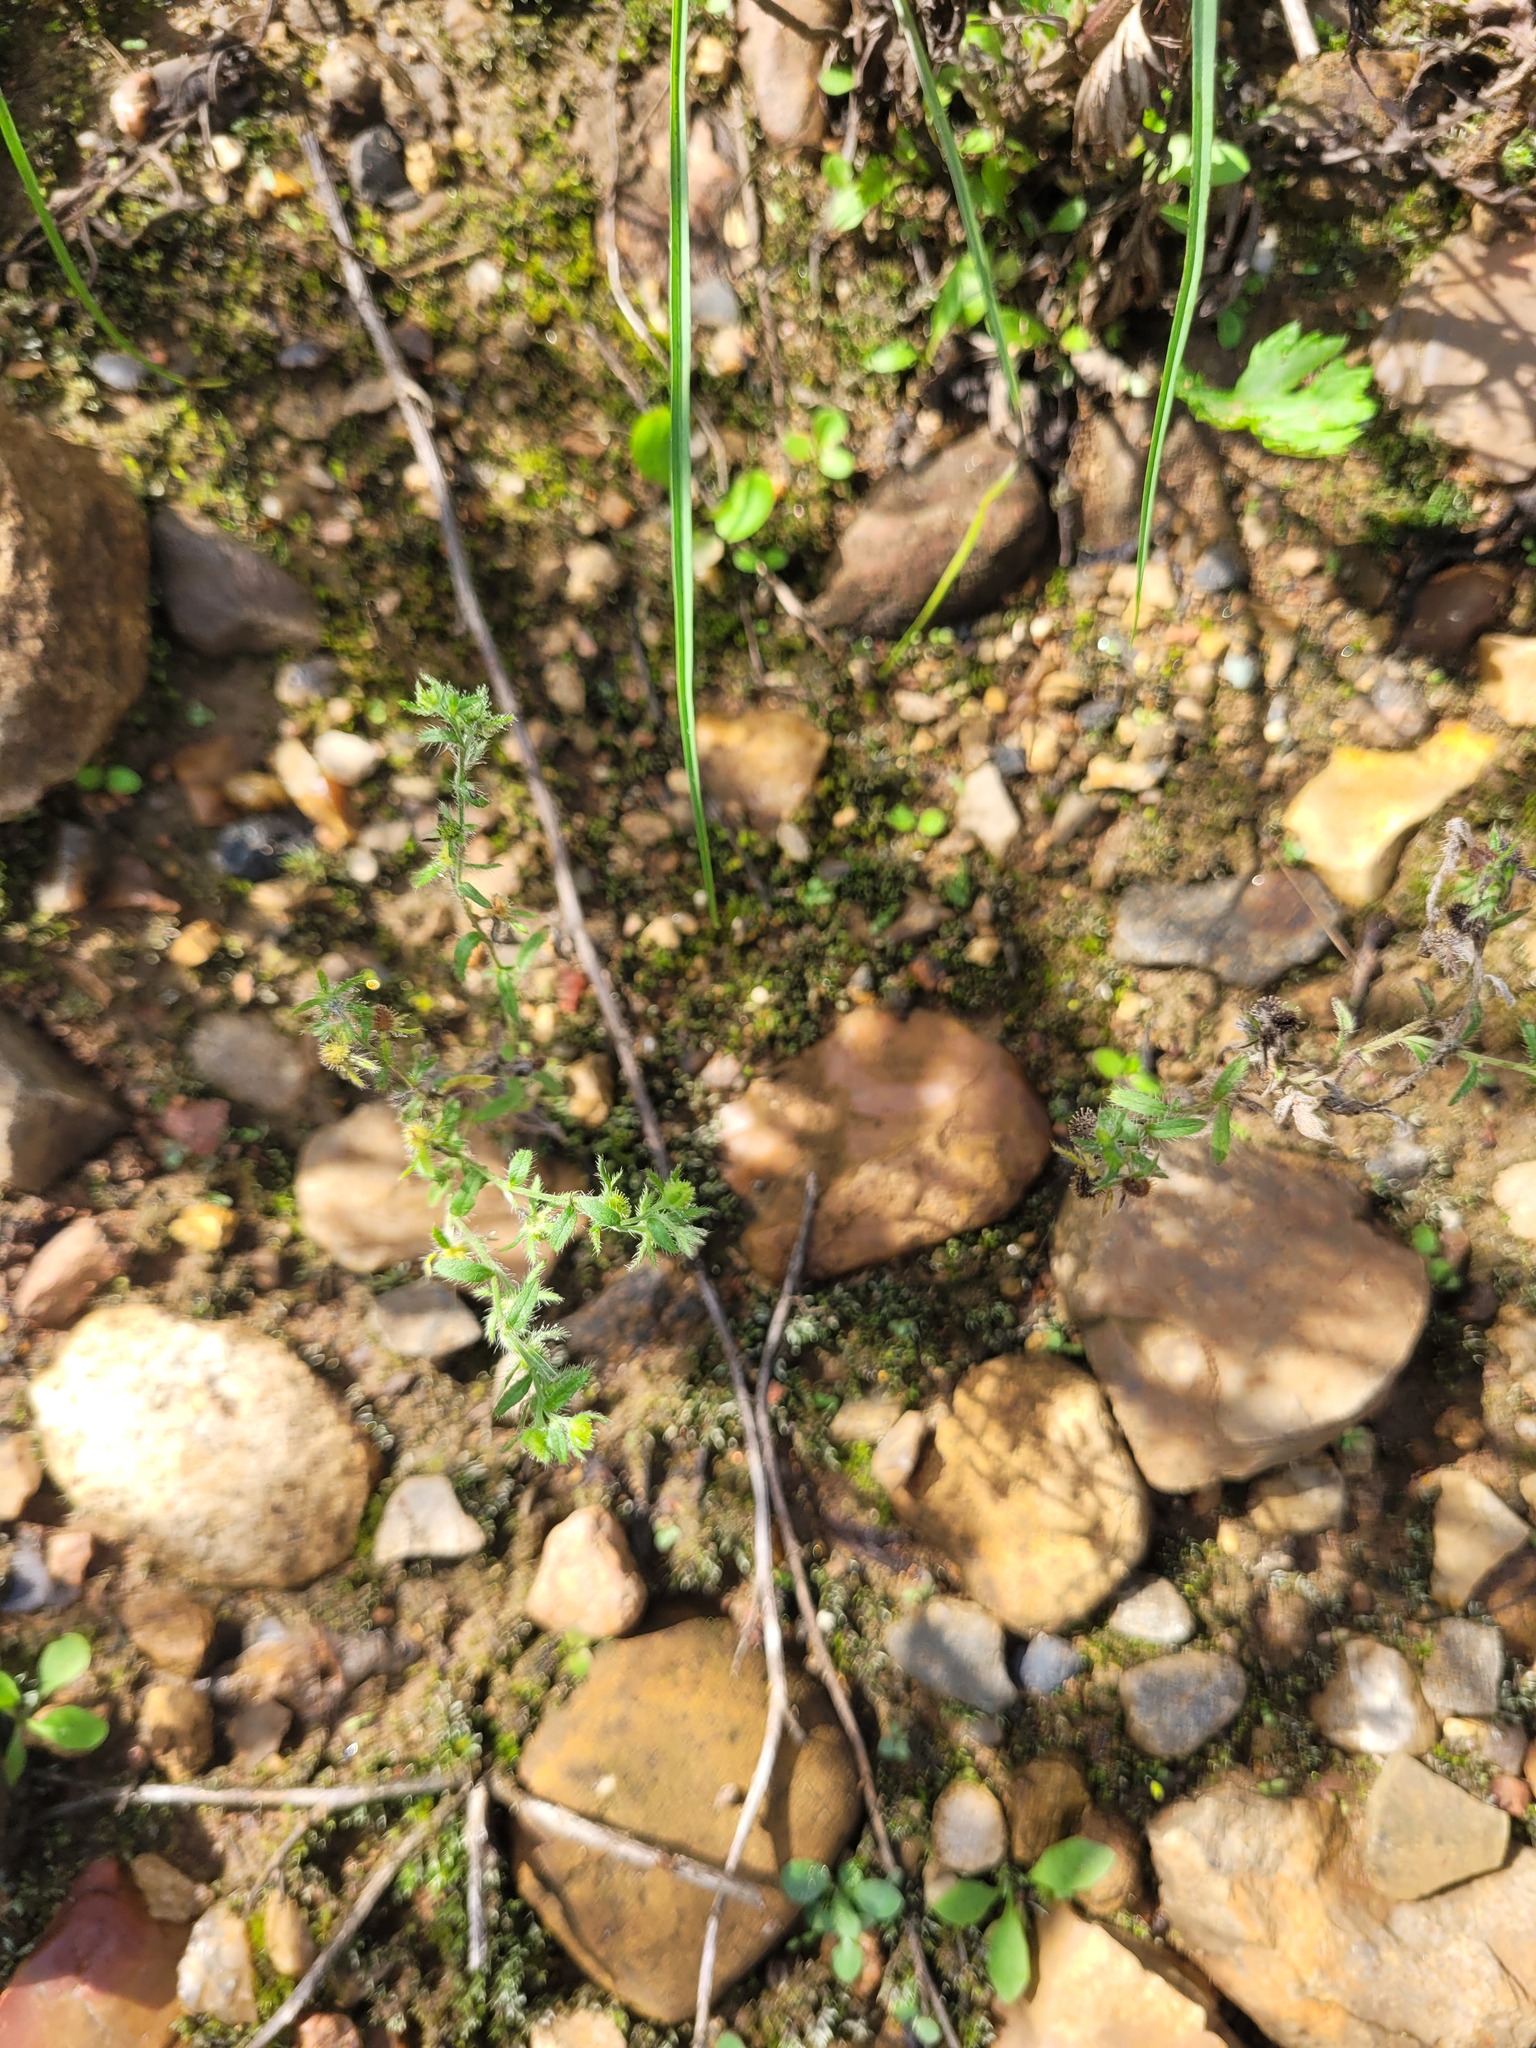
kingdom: Plantae
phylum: Tracheophyta
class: Magnoliopsida
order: Boraginales
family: Boraginaceae
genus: Lappula
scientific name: Lappula squarrosa
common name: European stickseed
